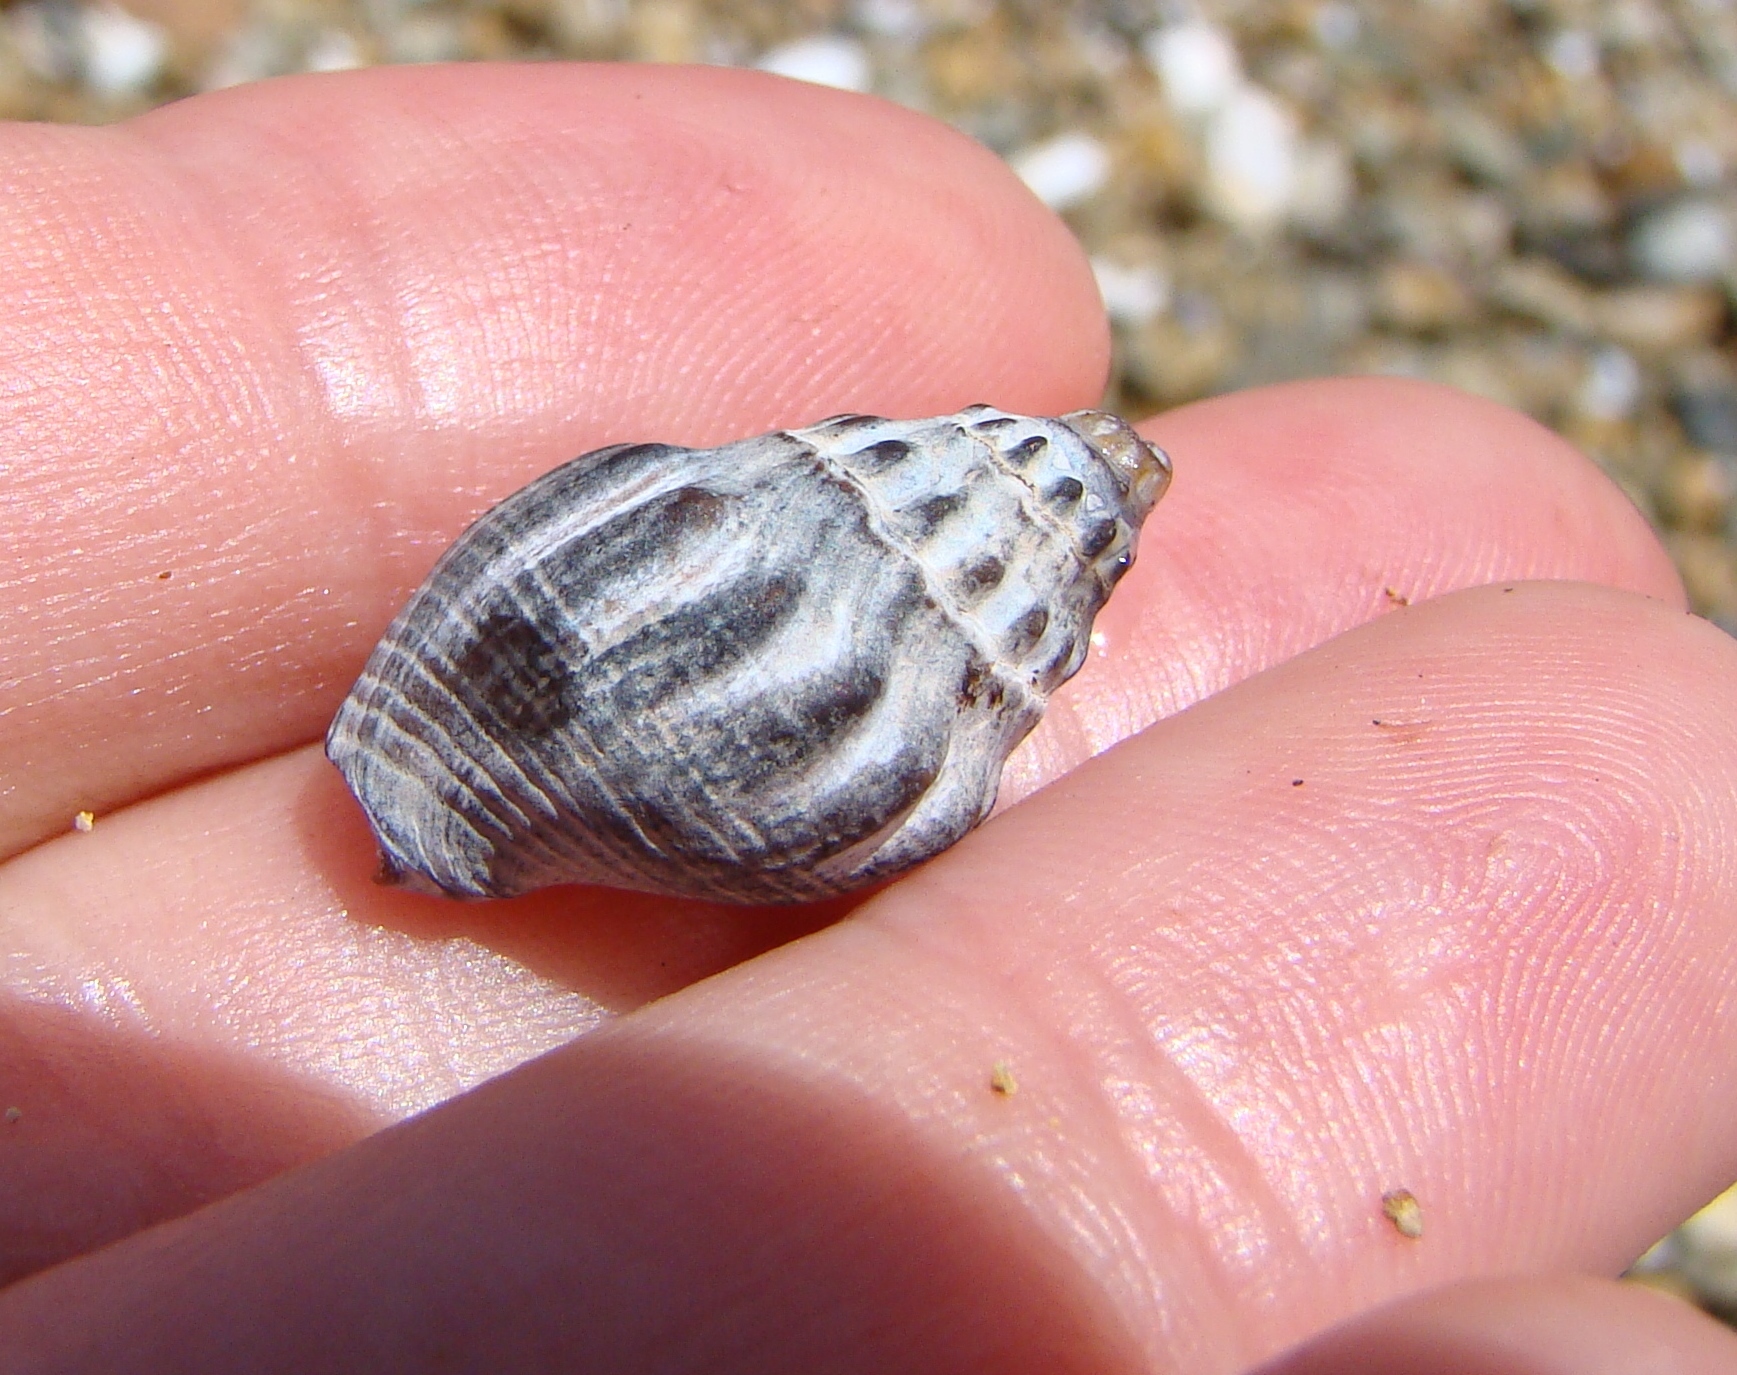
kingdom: Animalia
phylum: Mollusca
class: Gastropoda
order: Neogastropoda
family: Cominellidae
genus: Cominella
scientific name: Cominella glandiformis
